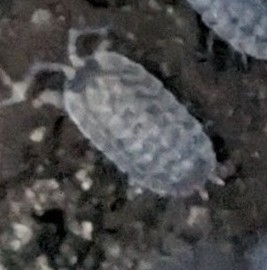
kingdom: Animalia
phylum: Arthropoda
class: Malacostraca
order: Isopoda
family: Porcellionidae
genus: Porcellio
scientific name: Porcellio spinicornis
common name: Painted woodlouse
